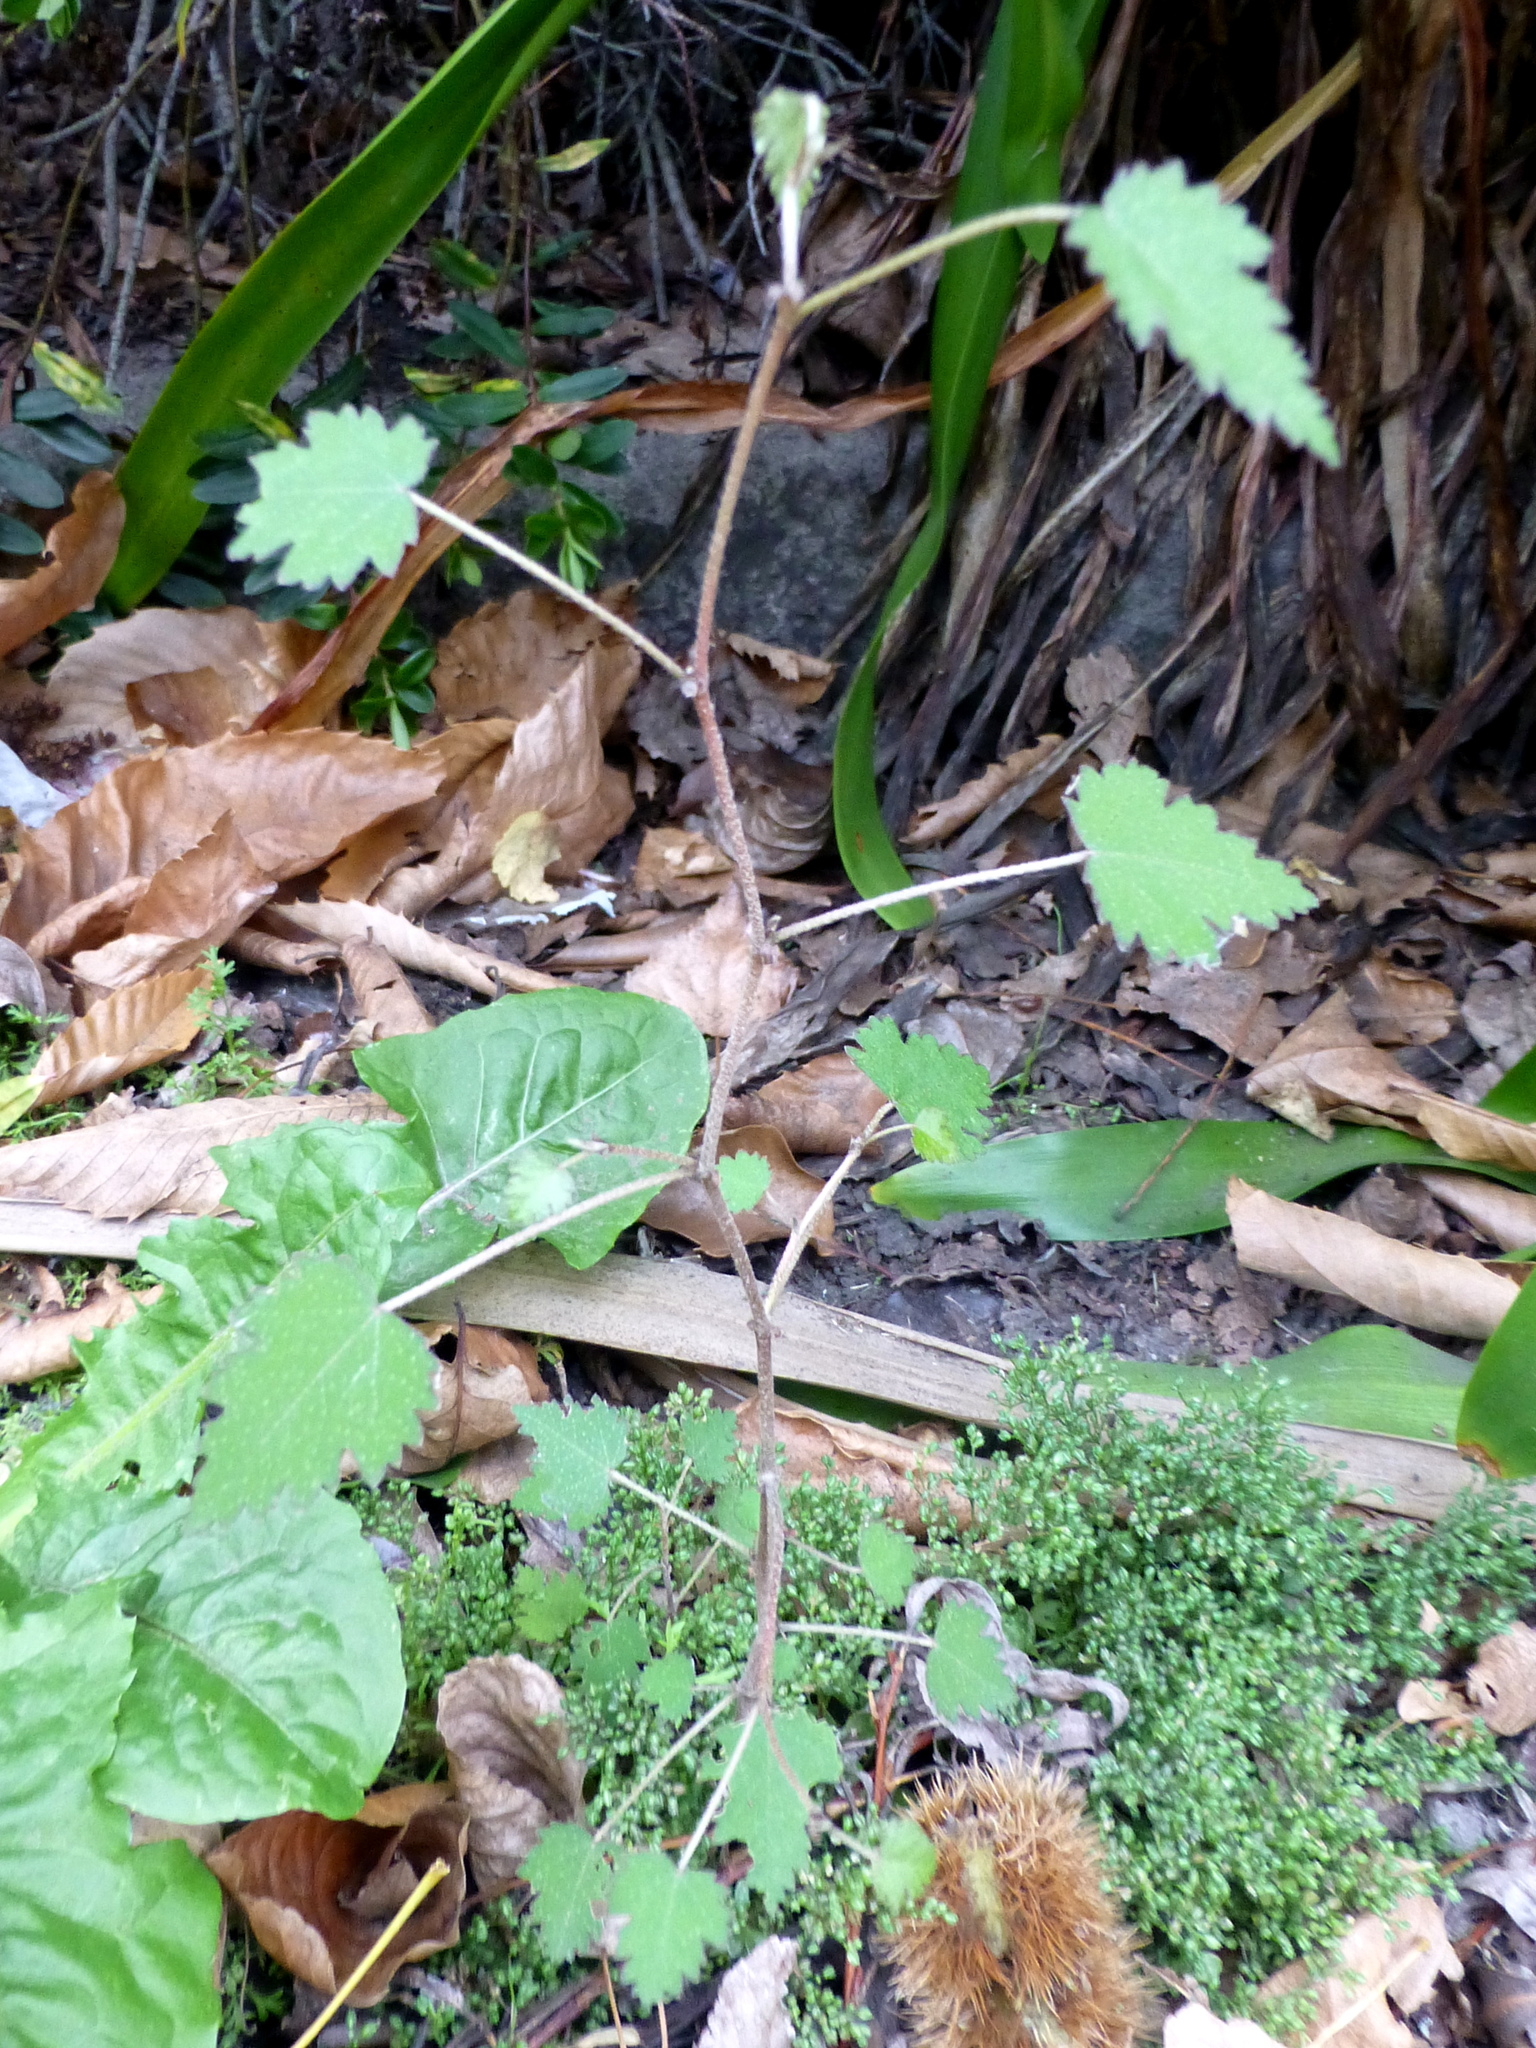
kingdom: Plantae
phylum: Tracheophyta
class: Magnoliopsida
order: Malvales
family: Malvaceae
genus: Plagianthus
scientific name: Plagianthus regius
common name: Manatu
